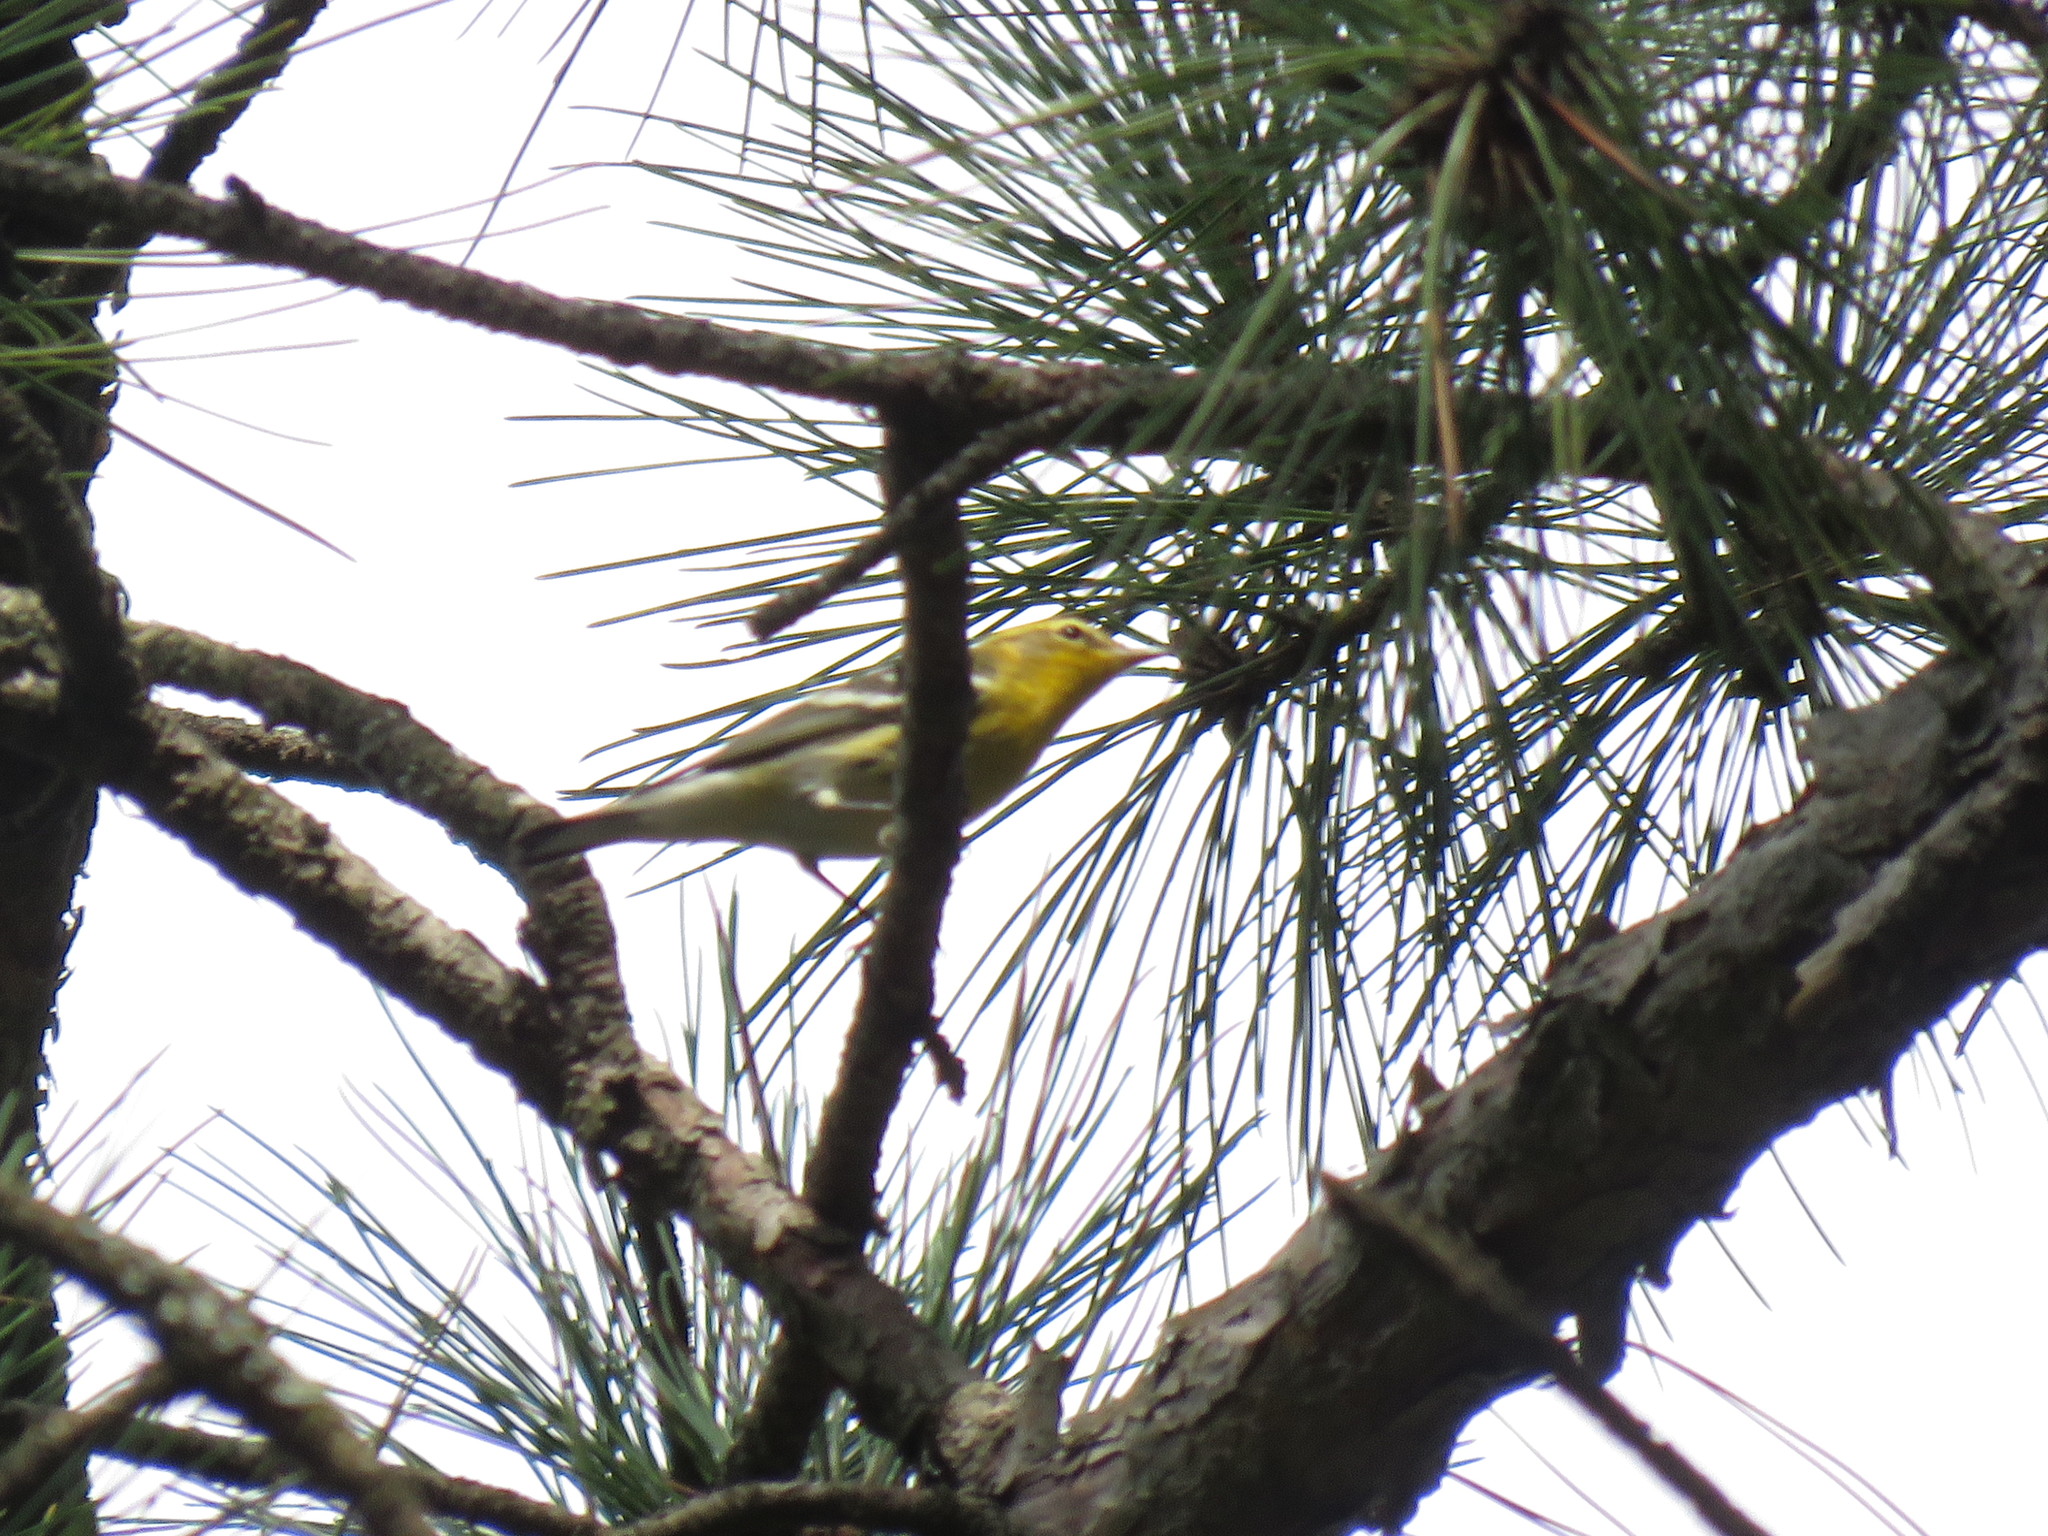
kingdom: Animalia
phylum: Chordata
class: Aves
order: Passeriformes
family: Parulidae
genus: Setophaga
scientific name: Setophaga fusca
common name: Blackburnian warbler
